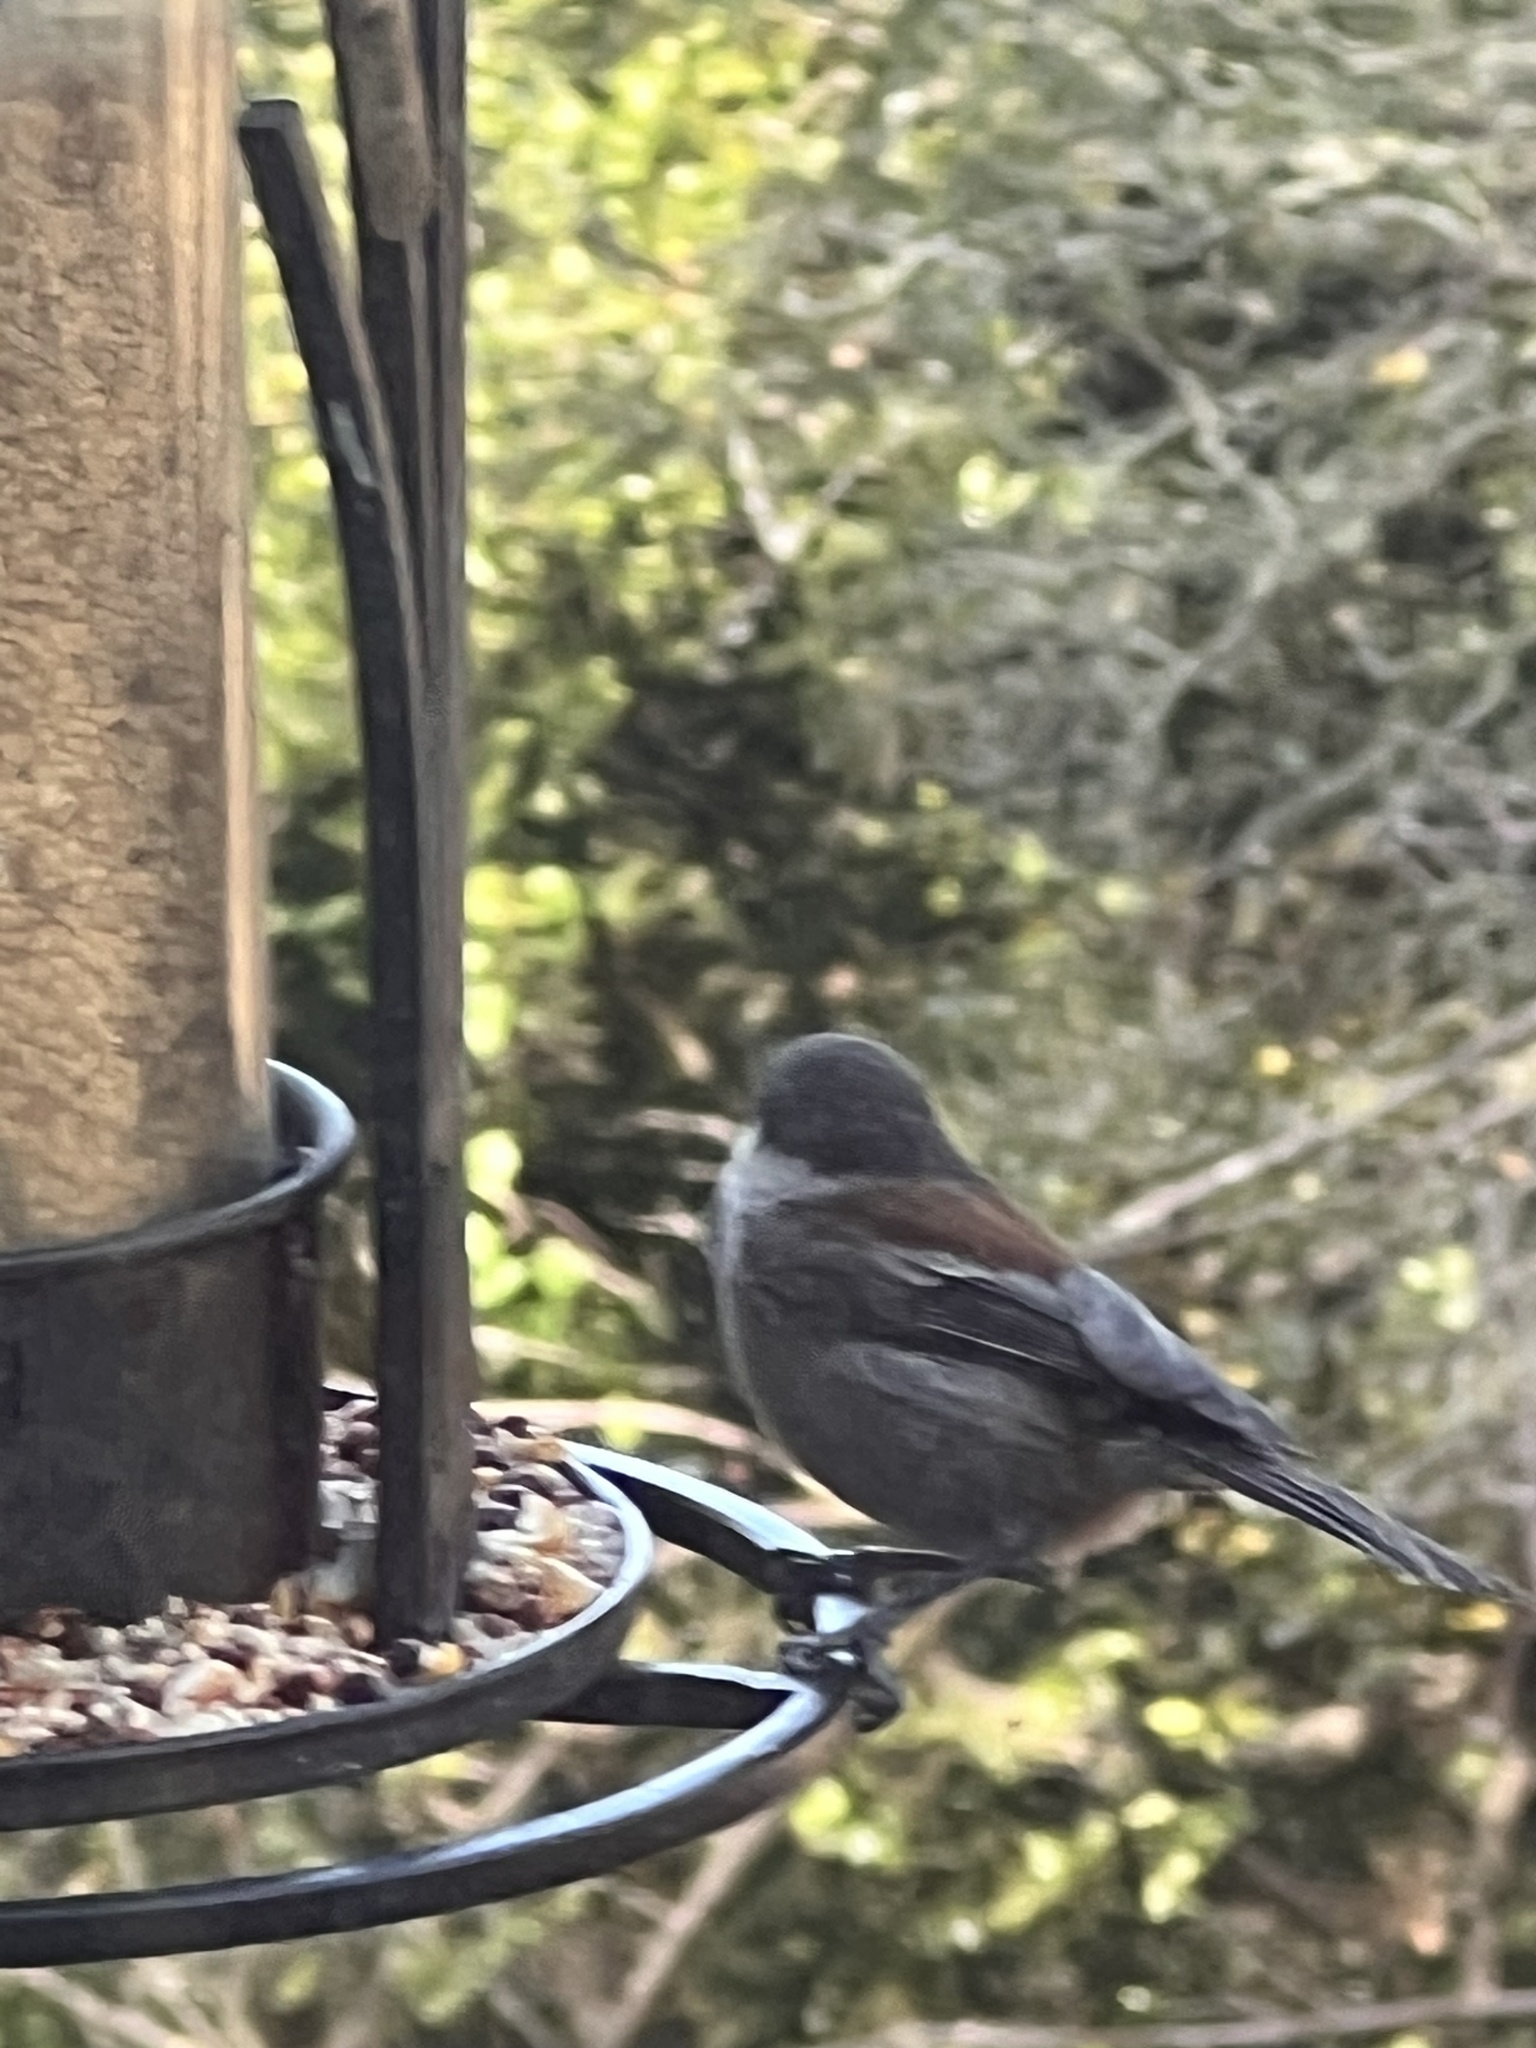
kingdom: Animalia
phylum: Chordata
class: Aves
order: Passeriformes
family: Paridae
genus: Poecile
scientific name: Poecile rufescens
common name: Chestnut-backed chickadee
